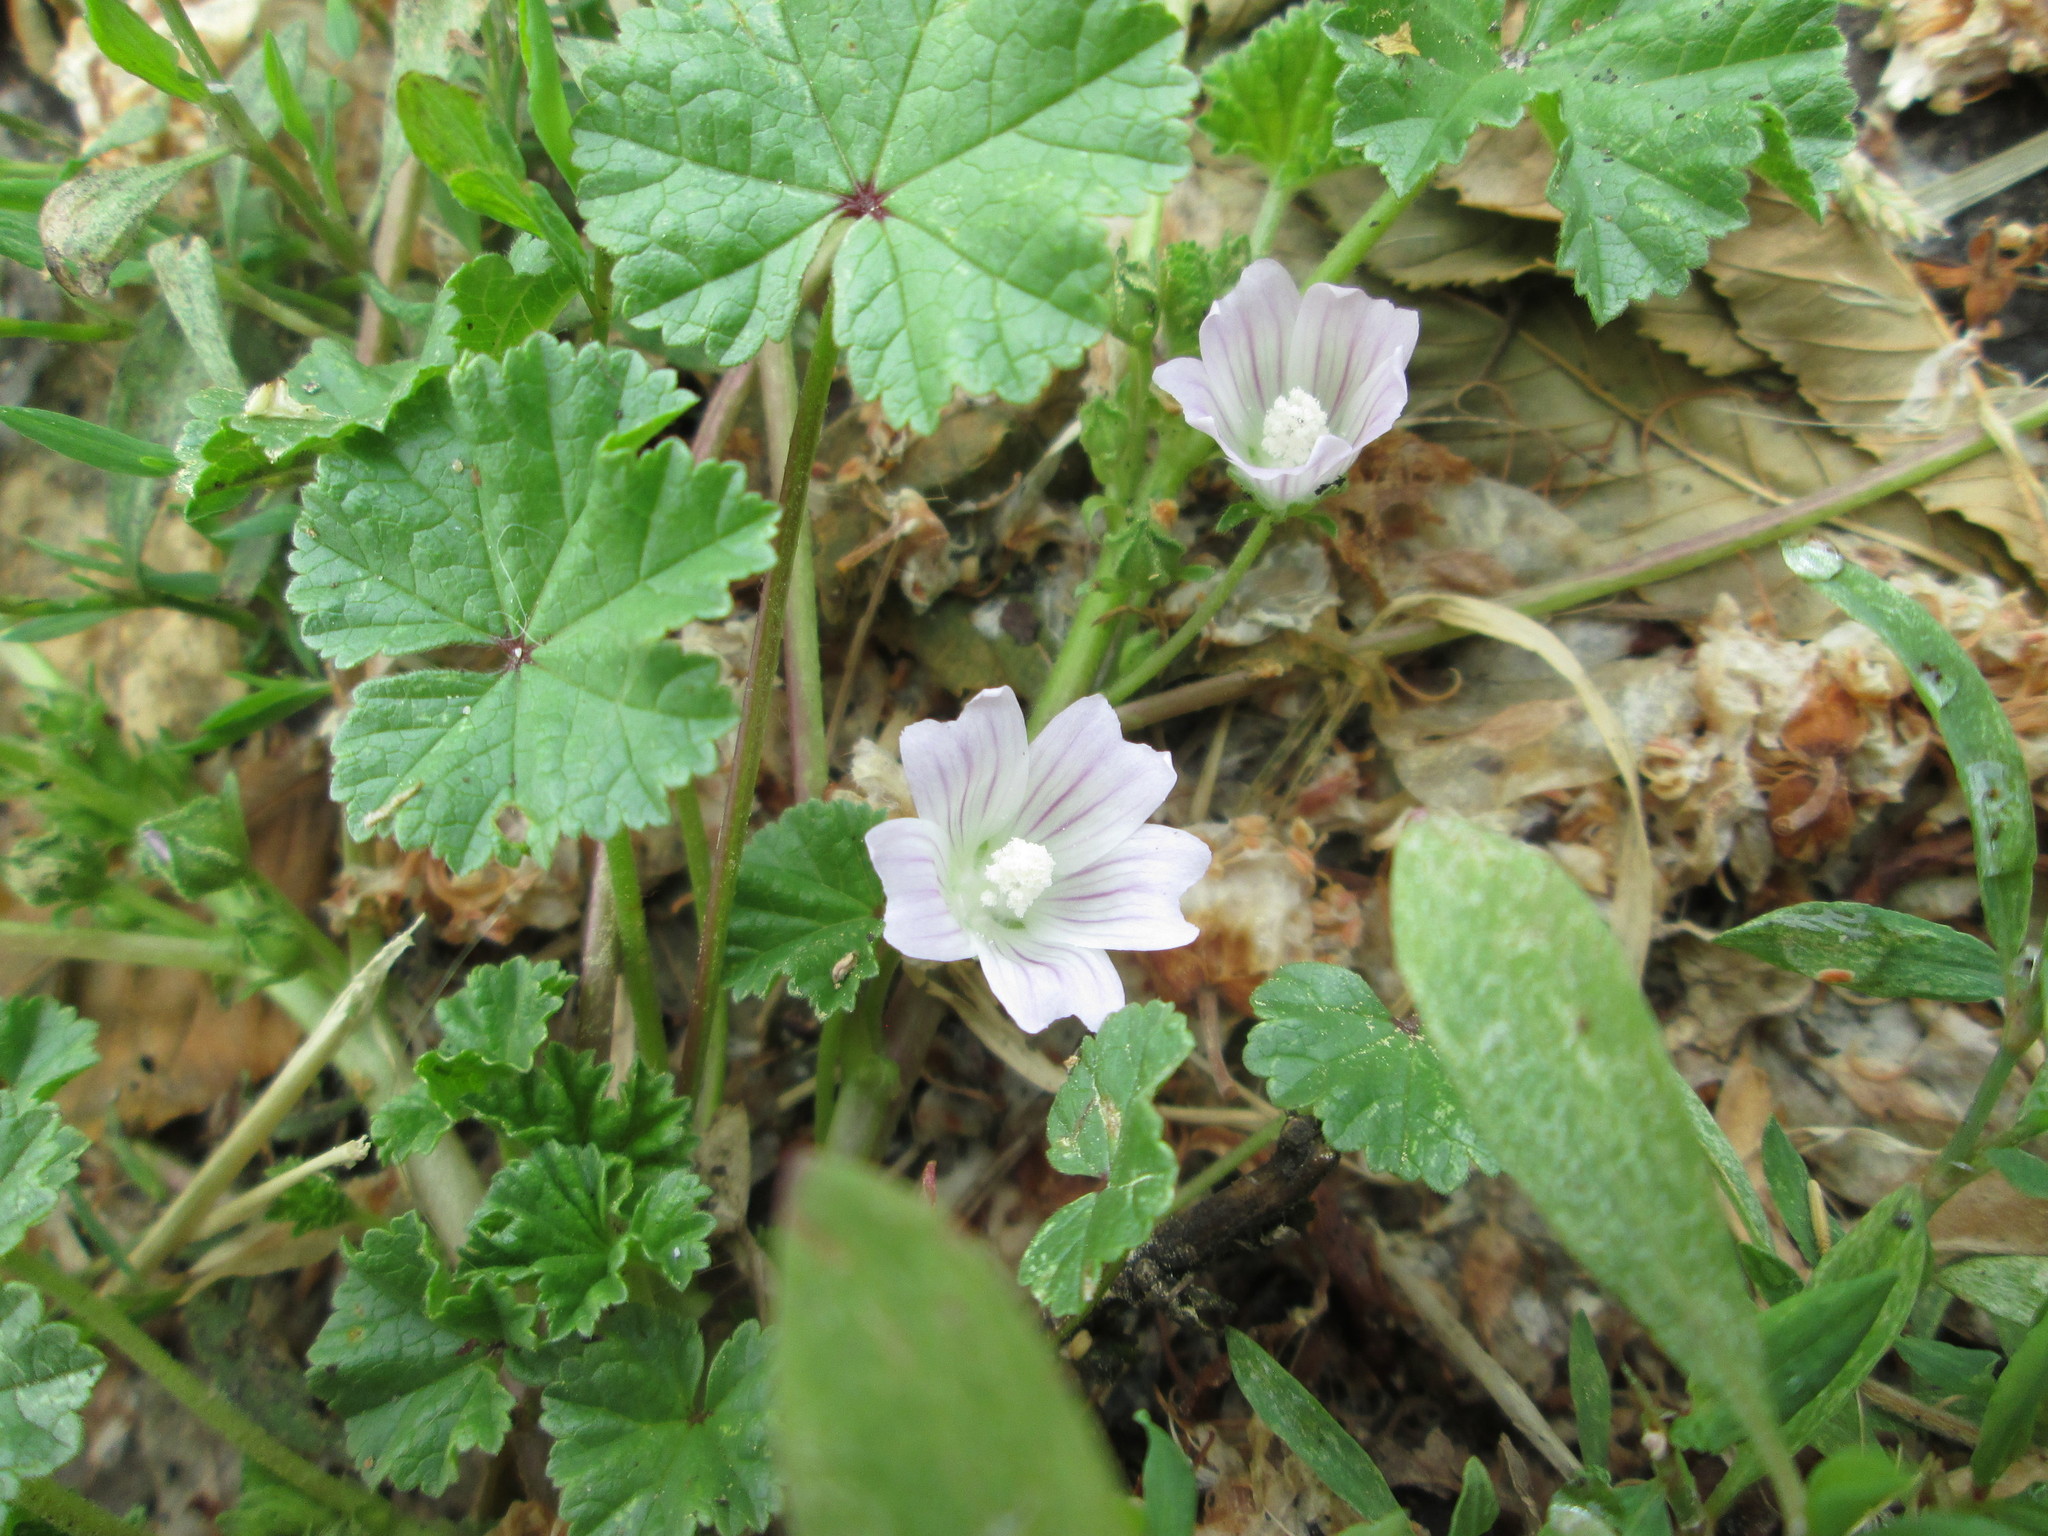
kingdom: Plantae
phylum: Tracheophyta
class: Magnoliopsida
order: Malvales
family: Malvaceae
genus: Malva
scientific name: Malva neglecta
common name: Common mallow
